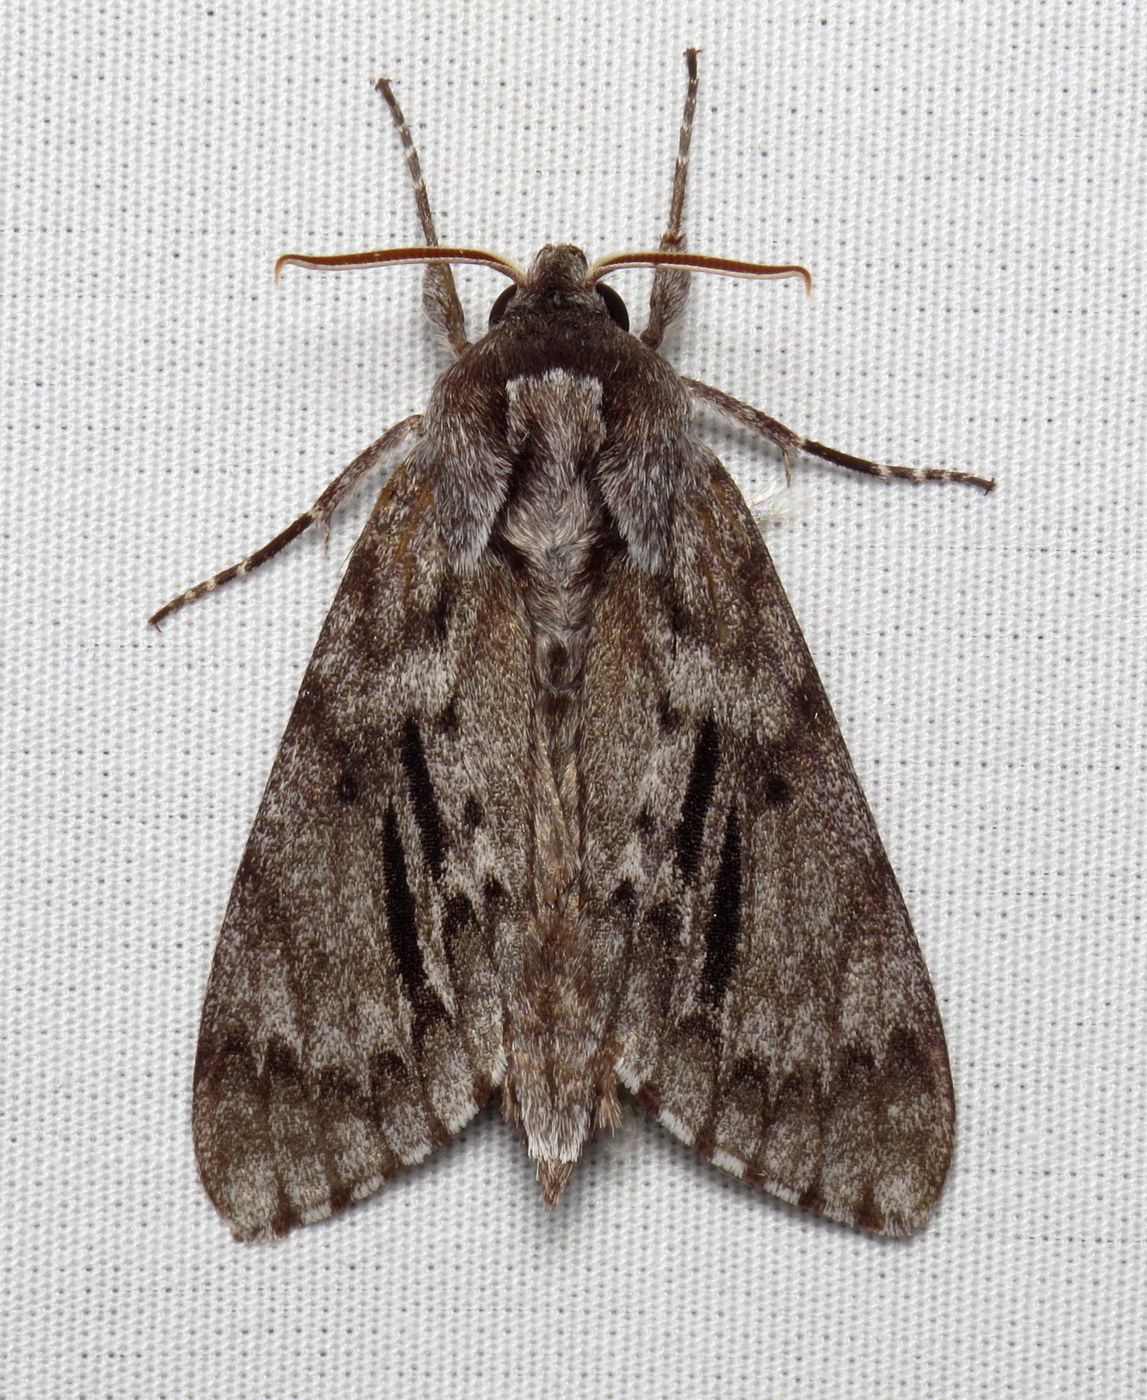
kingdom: Animalia
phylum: Arthropoda
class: Insecta
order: Lepidoptera
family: Sphingidae
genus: Lapara
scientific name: Lapara bombycoides
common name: Northern pine sphinx
